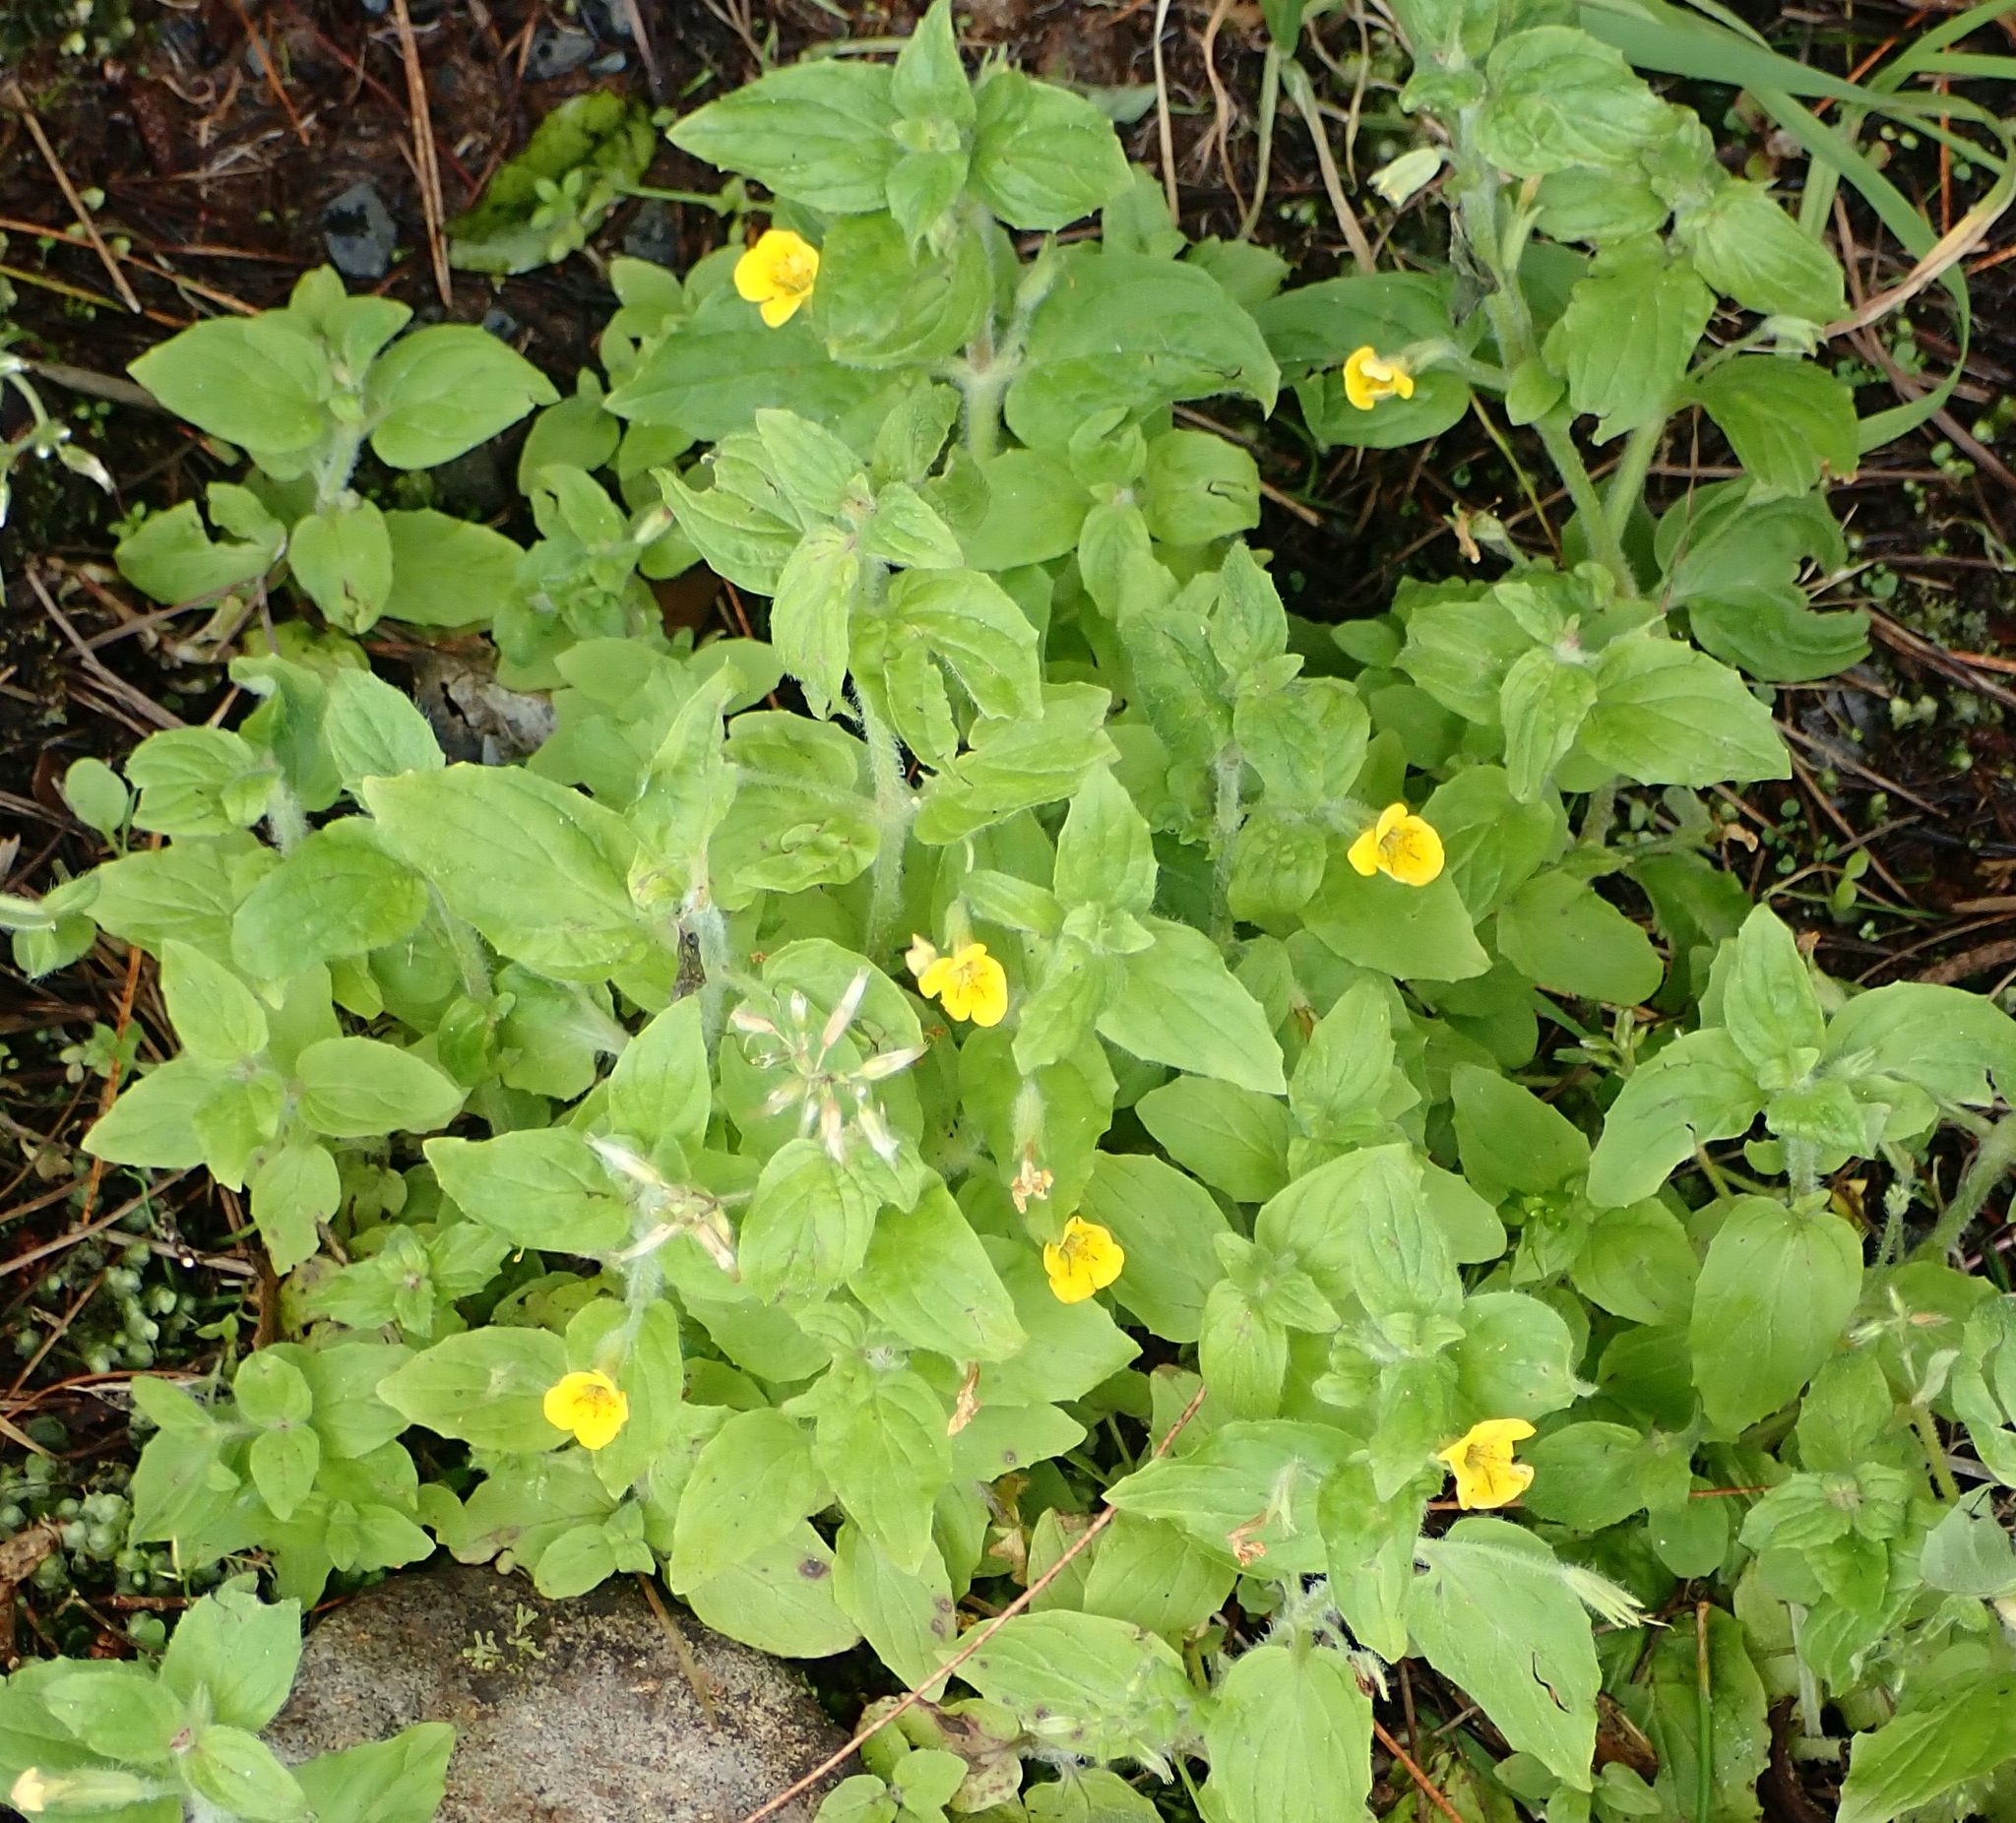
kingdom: Plantae
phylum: Tracheophyta
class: Magnoliopsida
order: Lamiales
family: Phrymaceae
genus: Erythranthe
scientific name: Erythranthe moschata
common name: Muskflower
